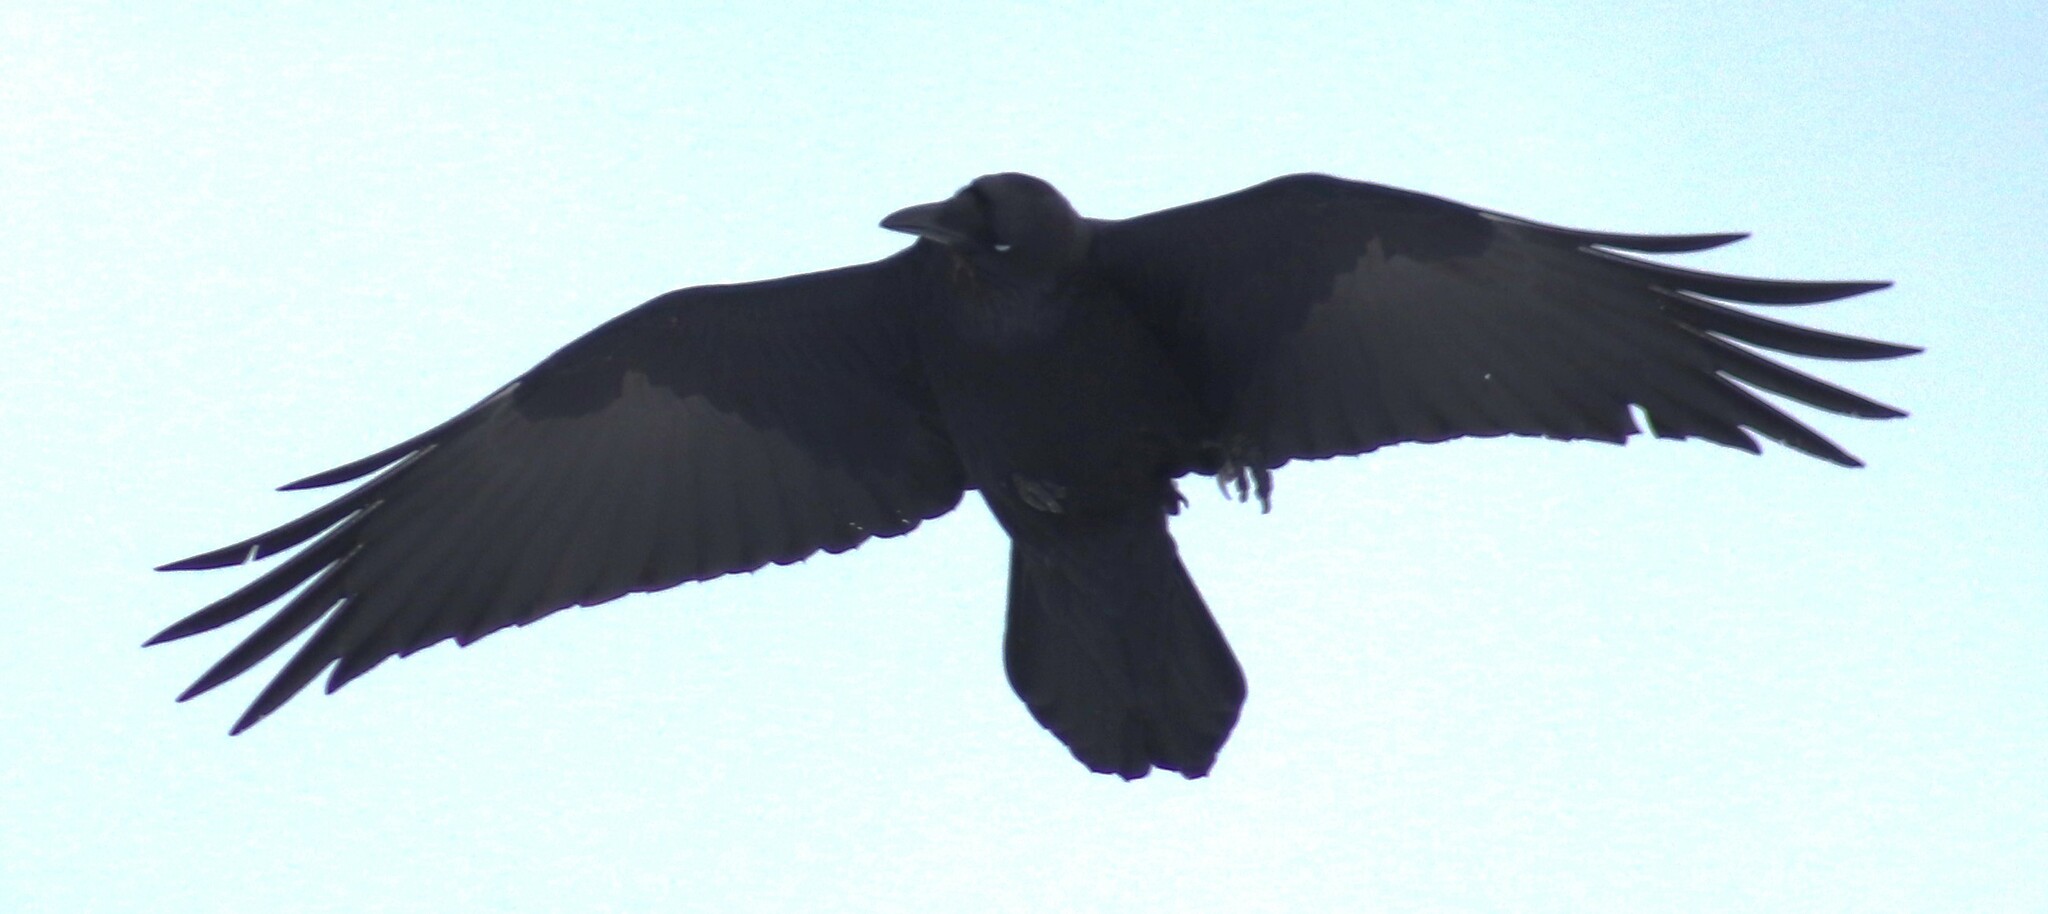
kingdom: Animalia
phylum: Chordata
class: Aves
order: Passeriformes
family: Corvidae
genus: Corvus
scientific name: Corvus corax
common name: Common raven
